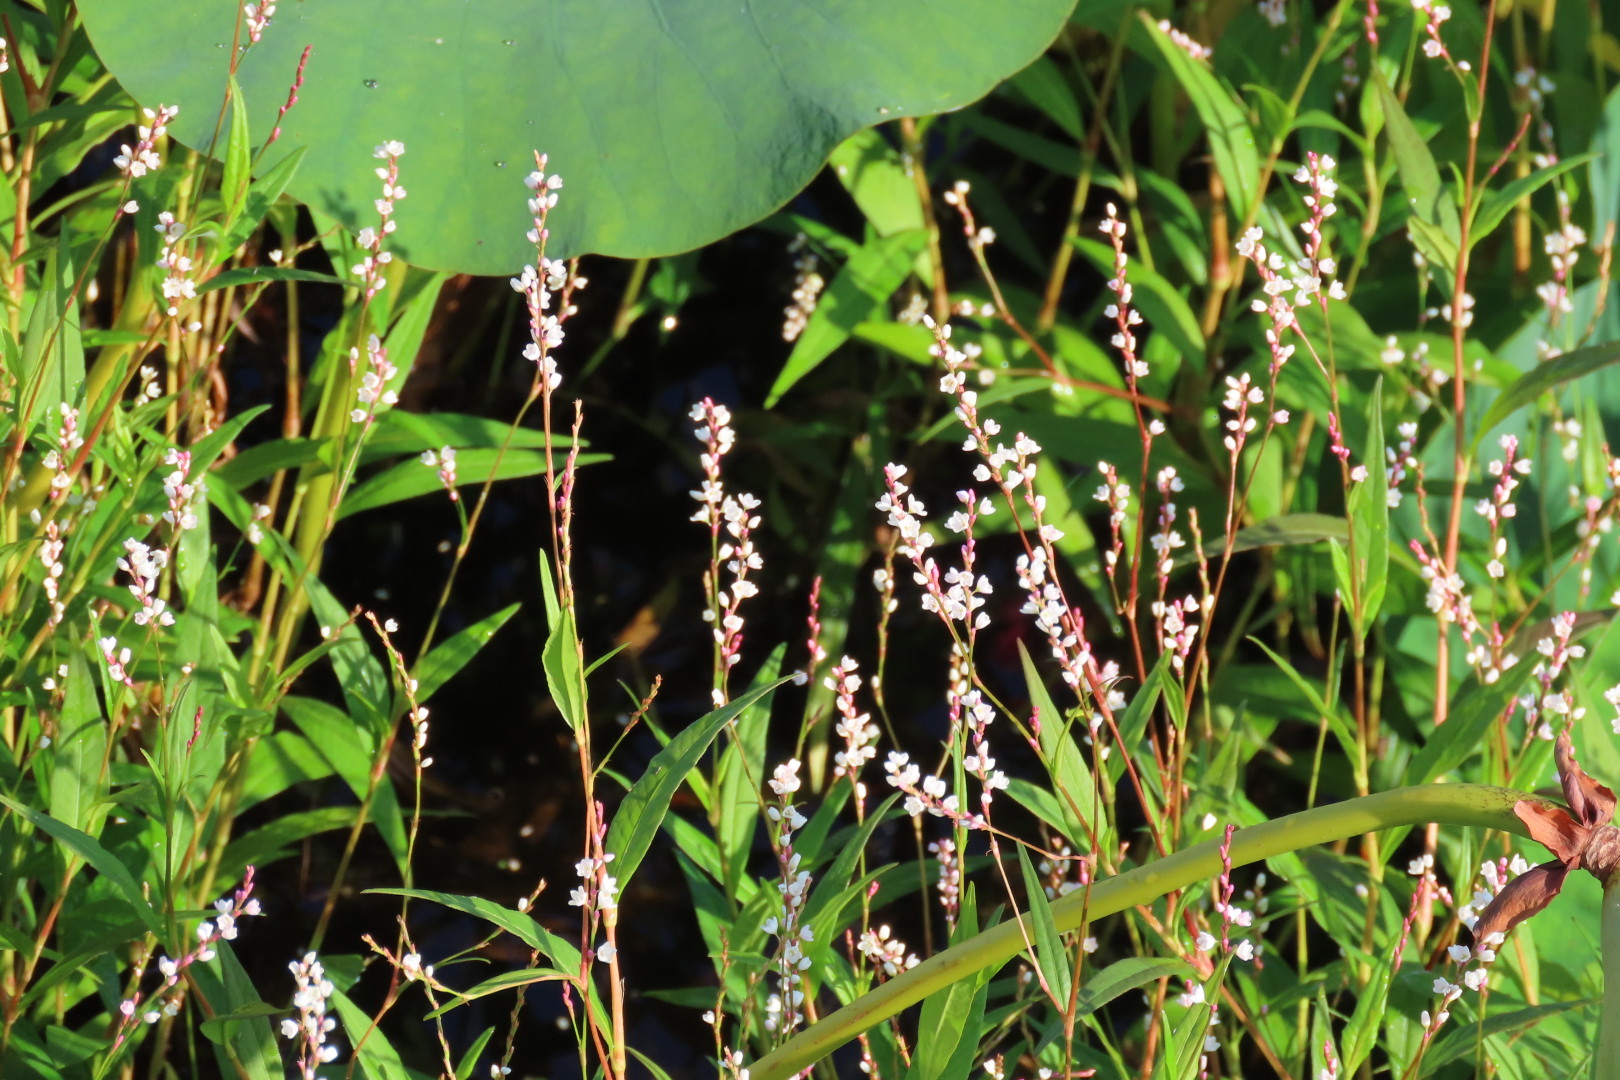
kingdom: Plantae
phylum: Tracheophyta
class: Magnoliopsida
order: Caryophyllales
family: Polygonaceae
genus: Persicaria
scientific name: Persicaria hydropiperoides
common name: Swamp smartweed
